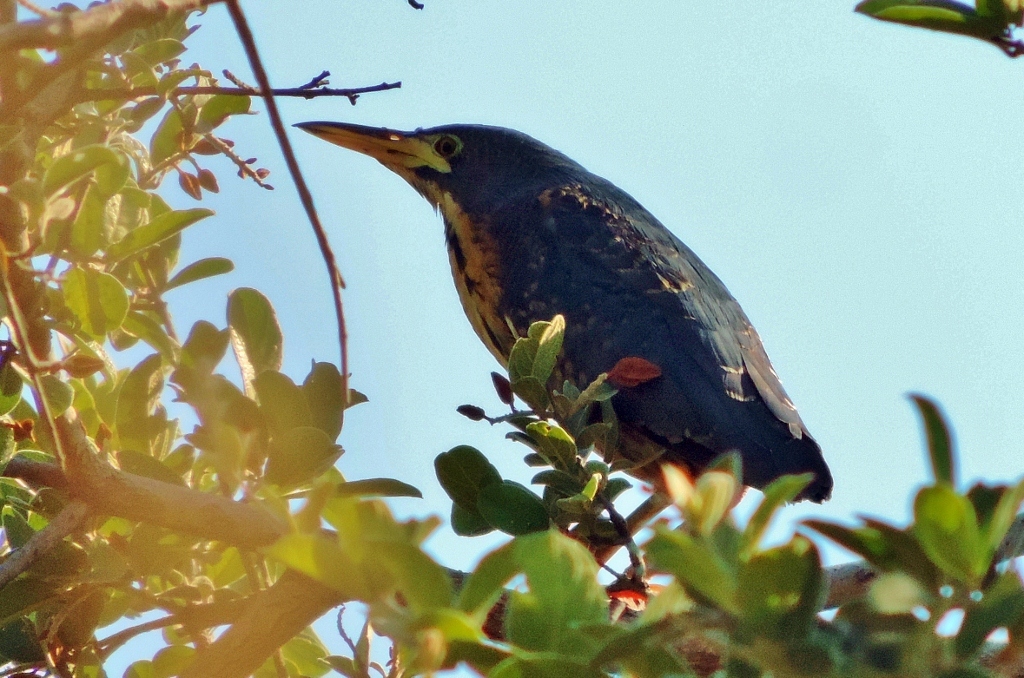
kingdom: Animalia
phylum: Chordata
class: Aves
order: Pelecaniformes
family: Ardeidae
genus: Ixobrychus
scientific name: Ixobrychus sturmii
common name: Dwarf bittern
